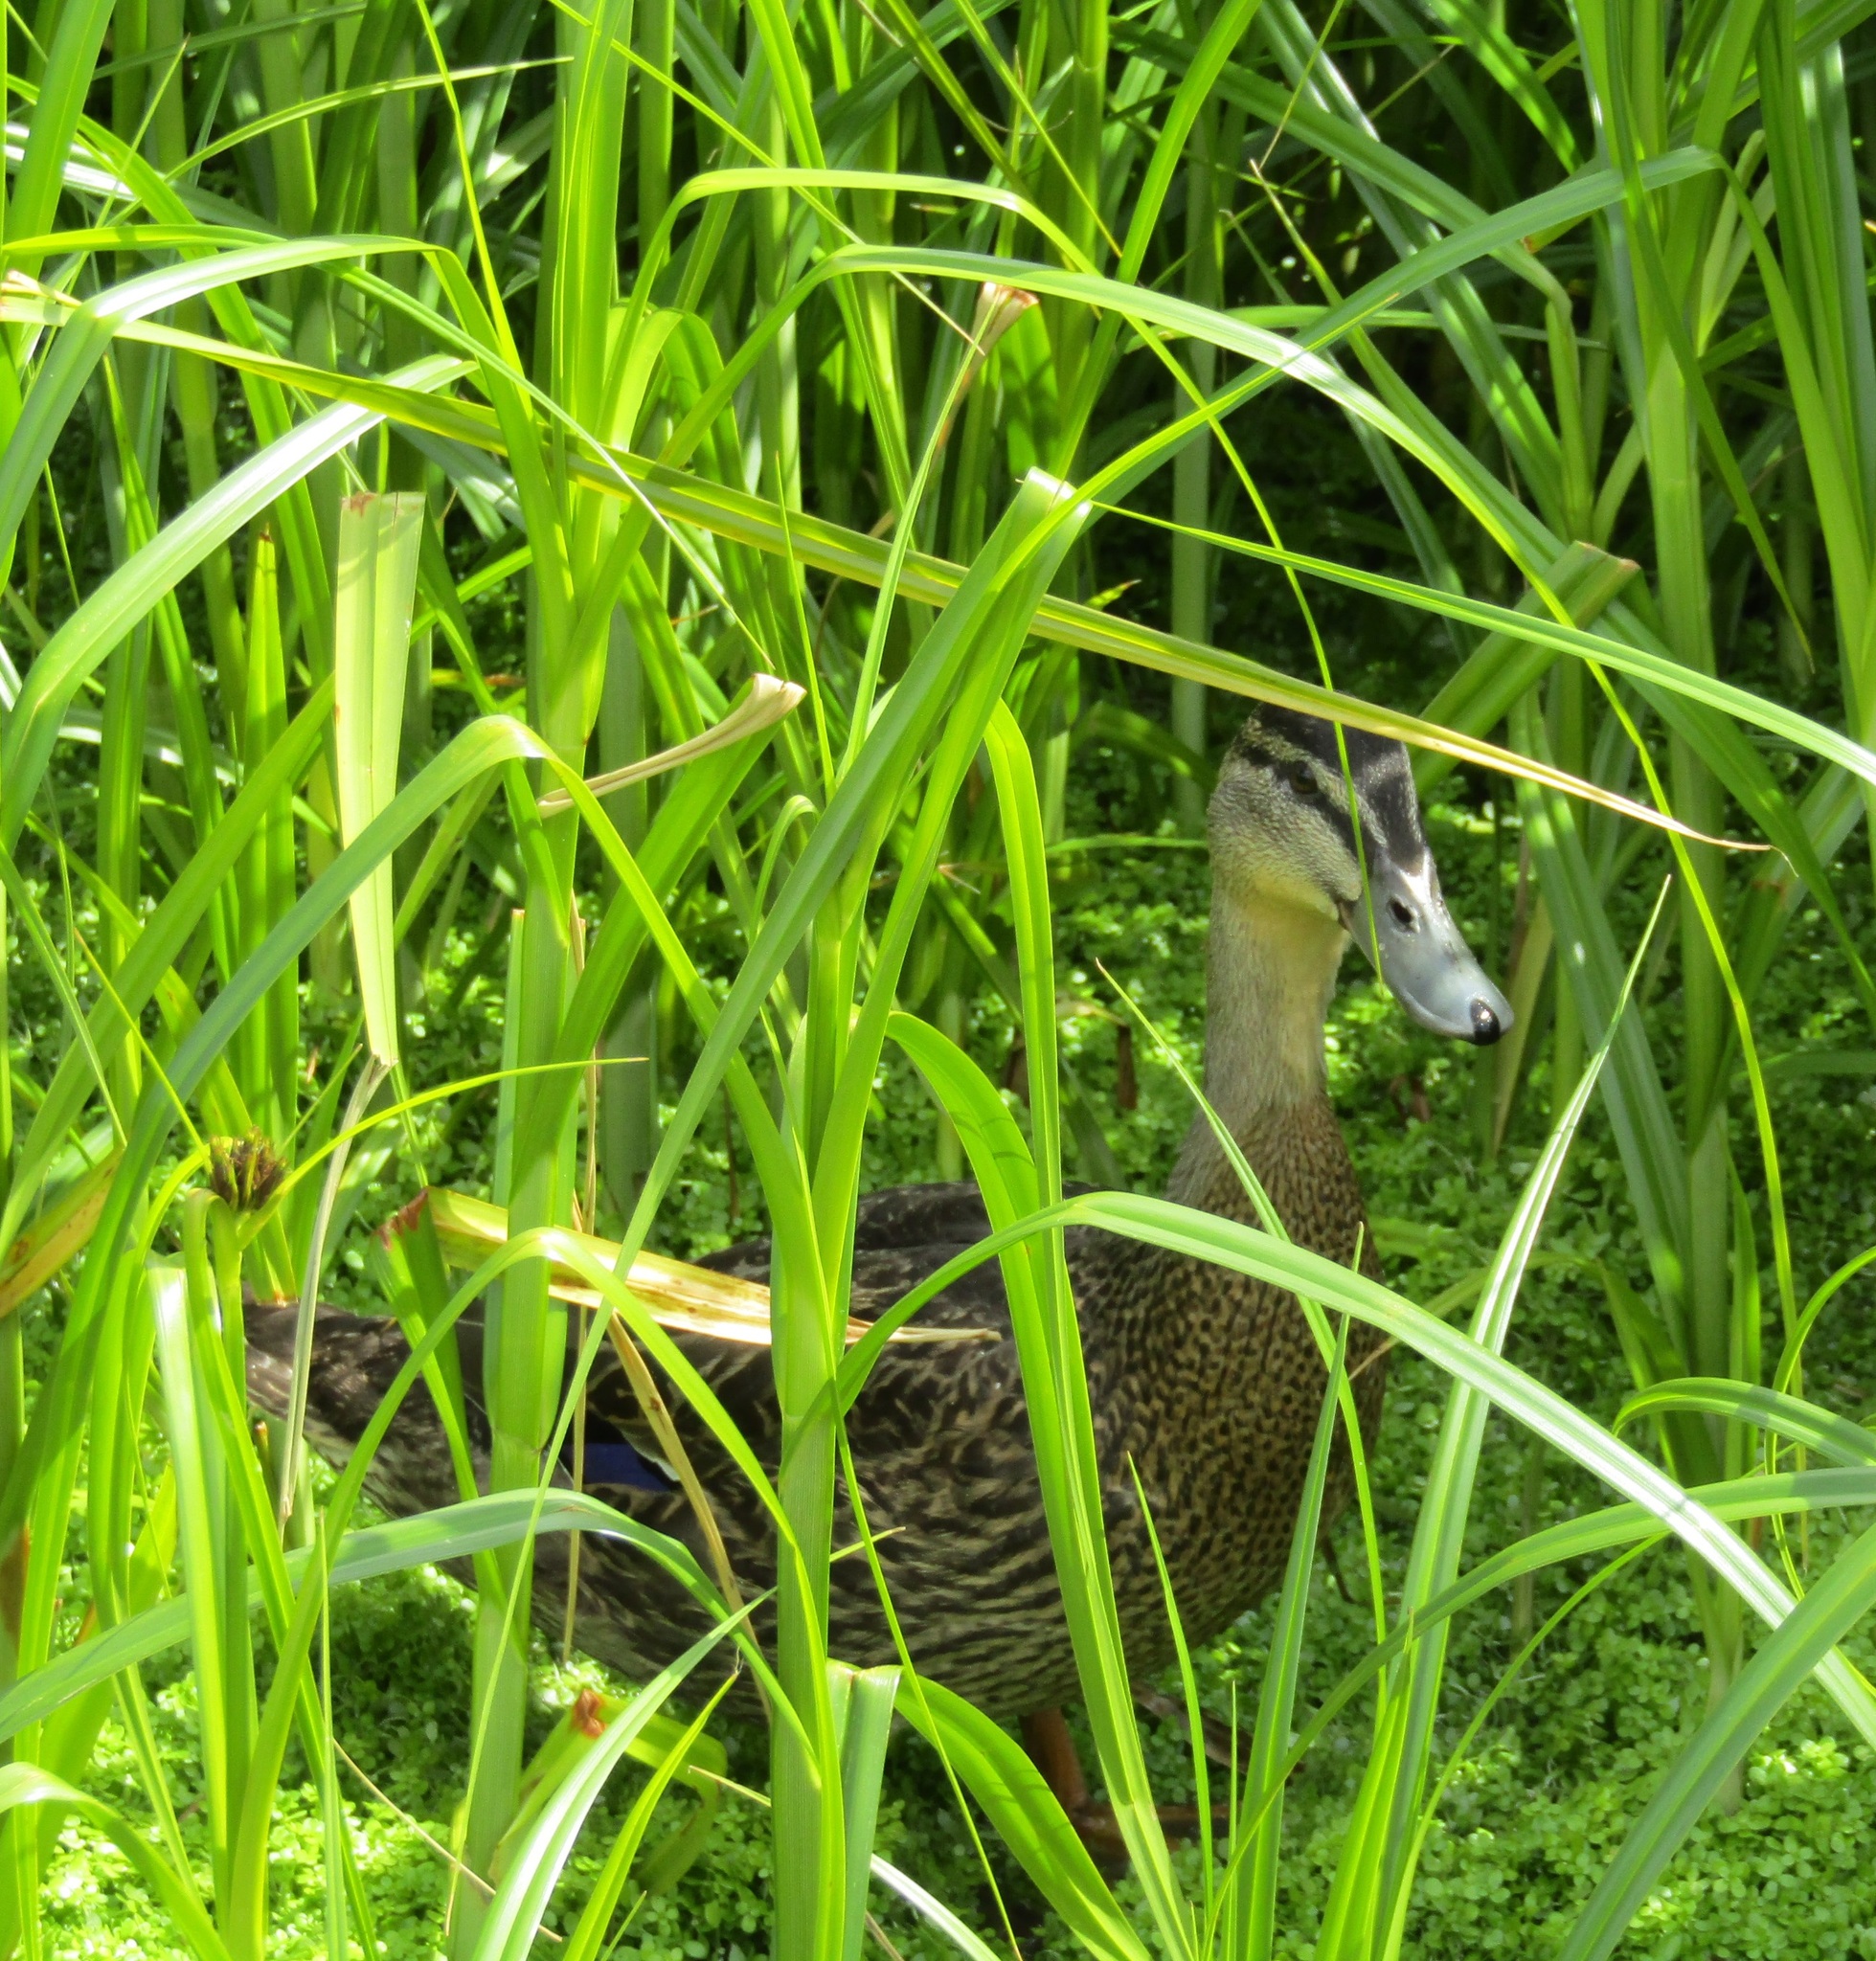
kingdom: Animalia
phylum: Chordata
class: Aves
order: Anseriformes
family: Anatidae
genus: Anas
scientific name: Anas
